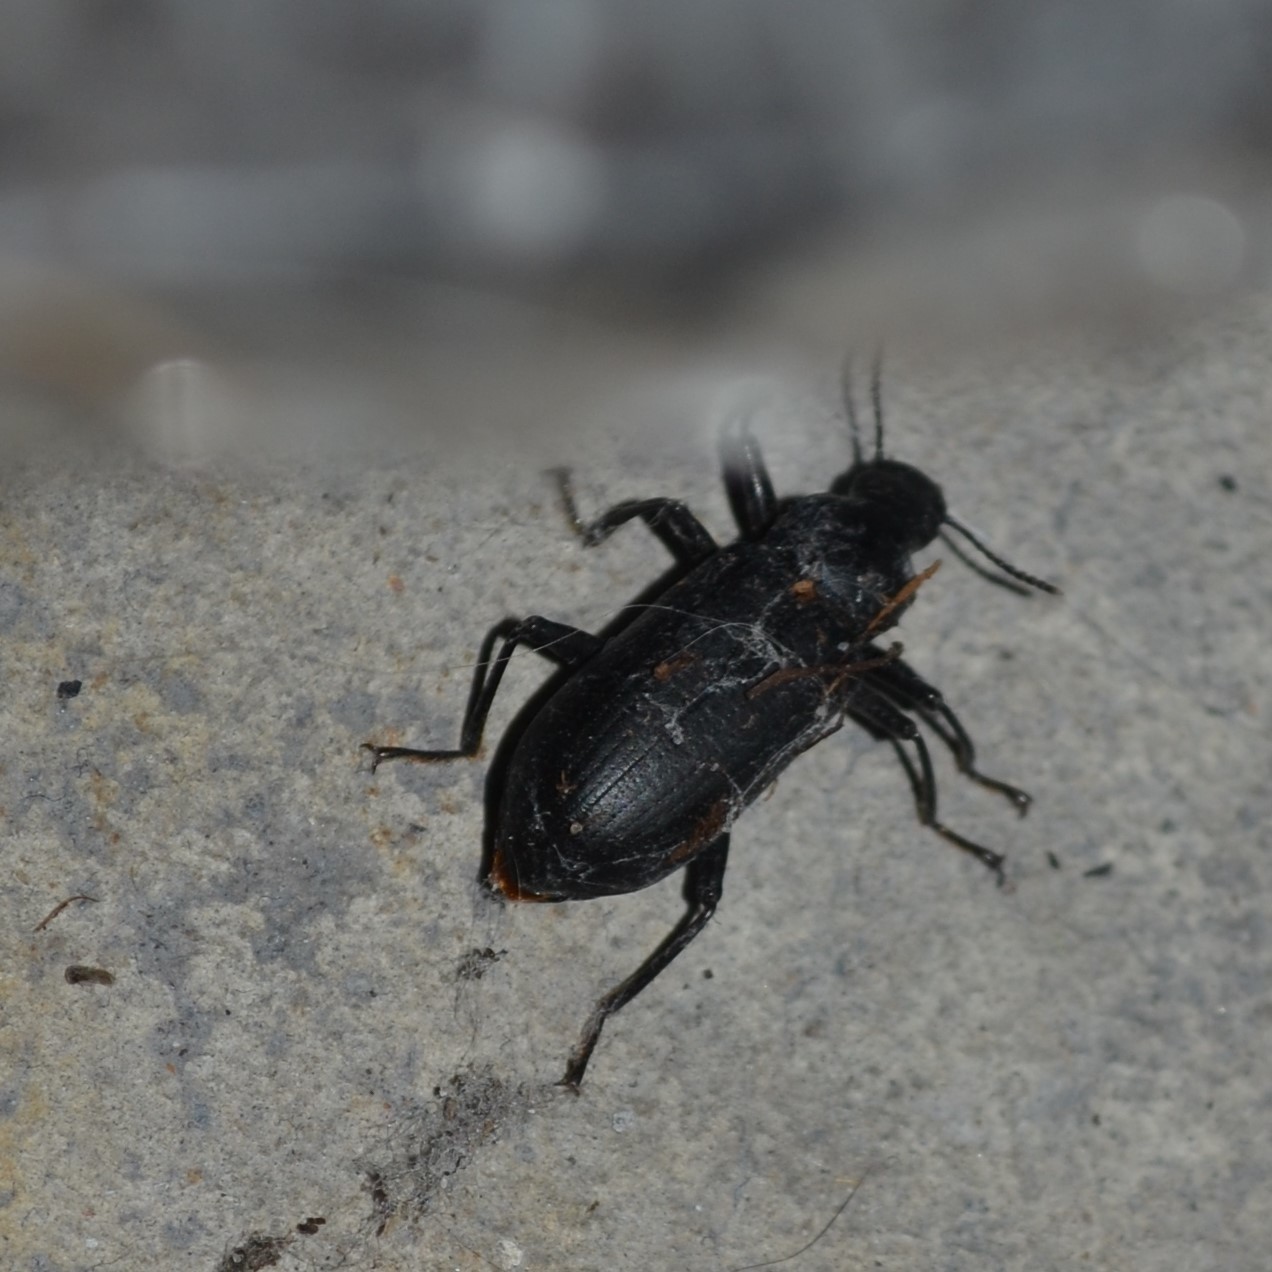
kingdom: Animalia
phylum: Arthropoda
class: Insecta
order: Coleoptera
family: Tenebrionidae
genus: Alobates
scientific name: Alobates pensylvanicus
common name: False mealworm beetle
